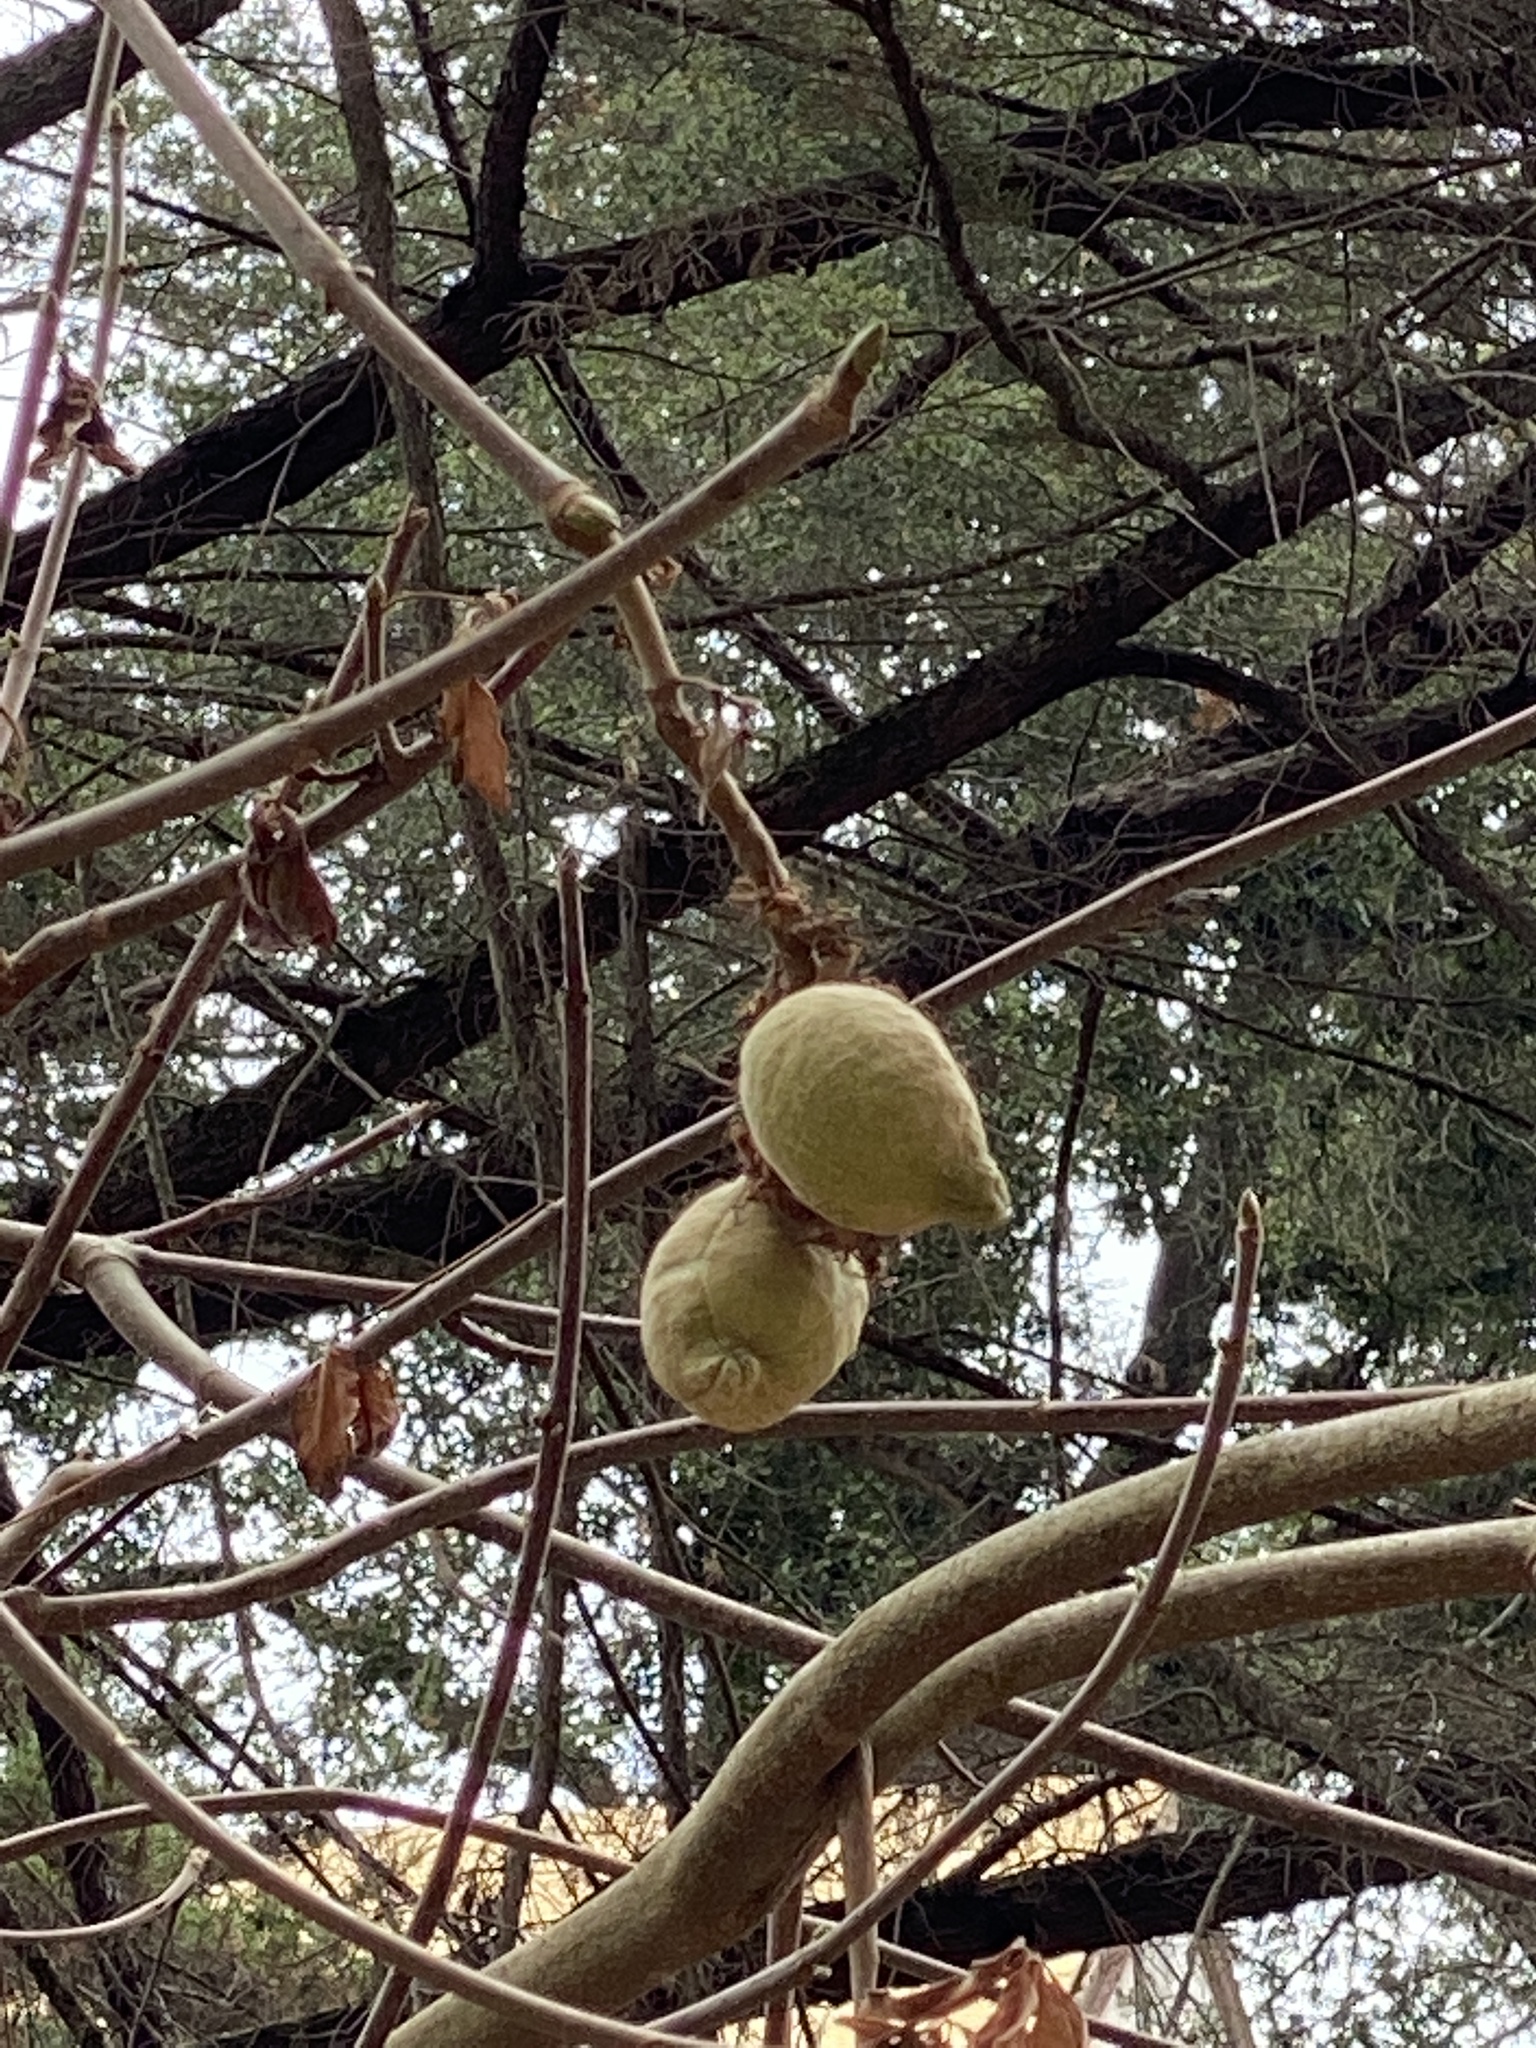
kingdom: Plantae
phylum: Tracheophyta
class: Magnoliopsida
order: Sapindales
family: Sapindaceae
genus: Aesculus
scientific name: Aesculus californica
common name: California buckeye
